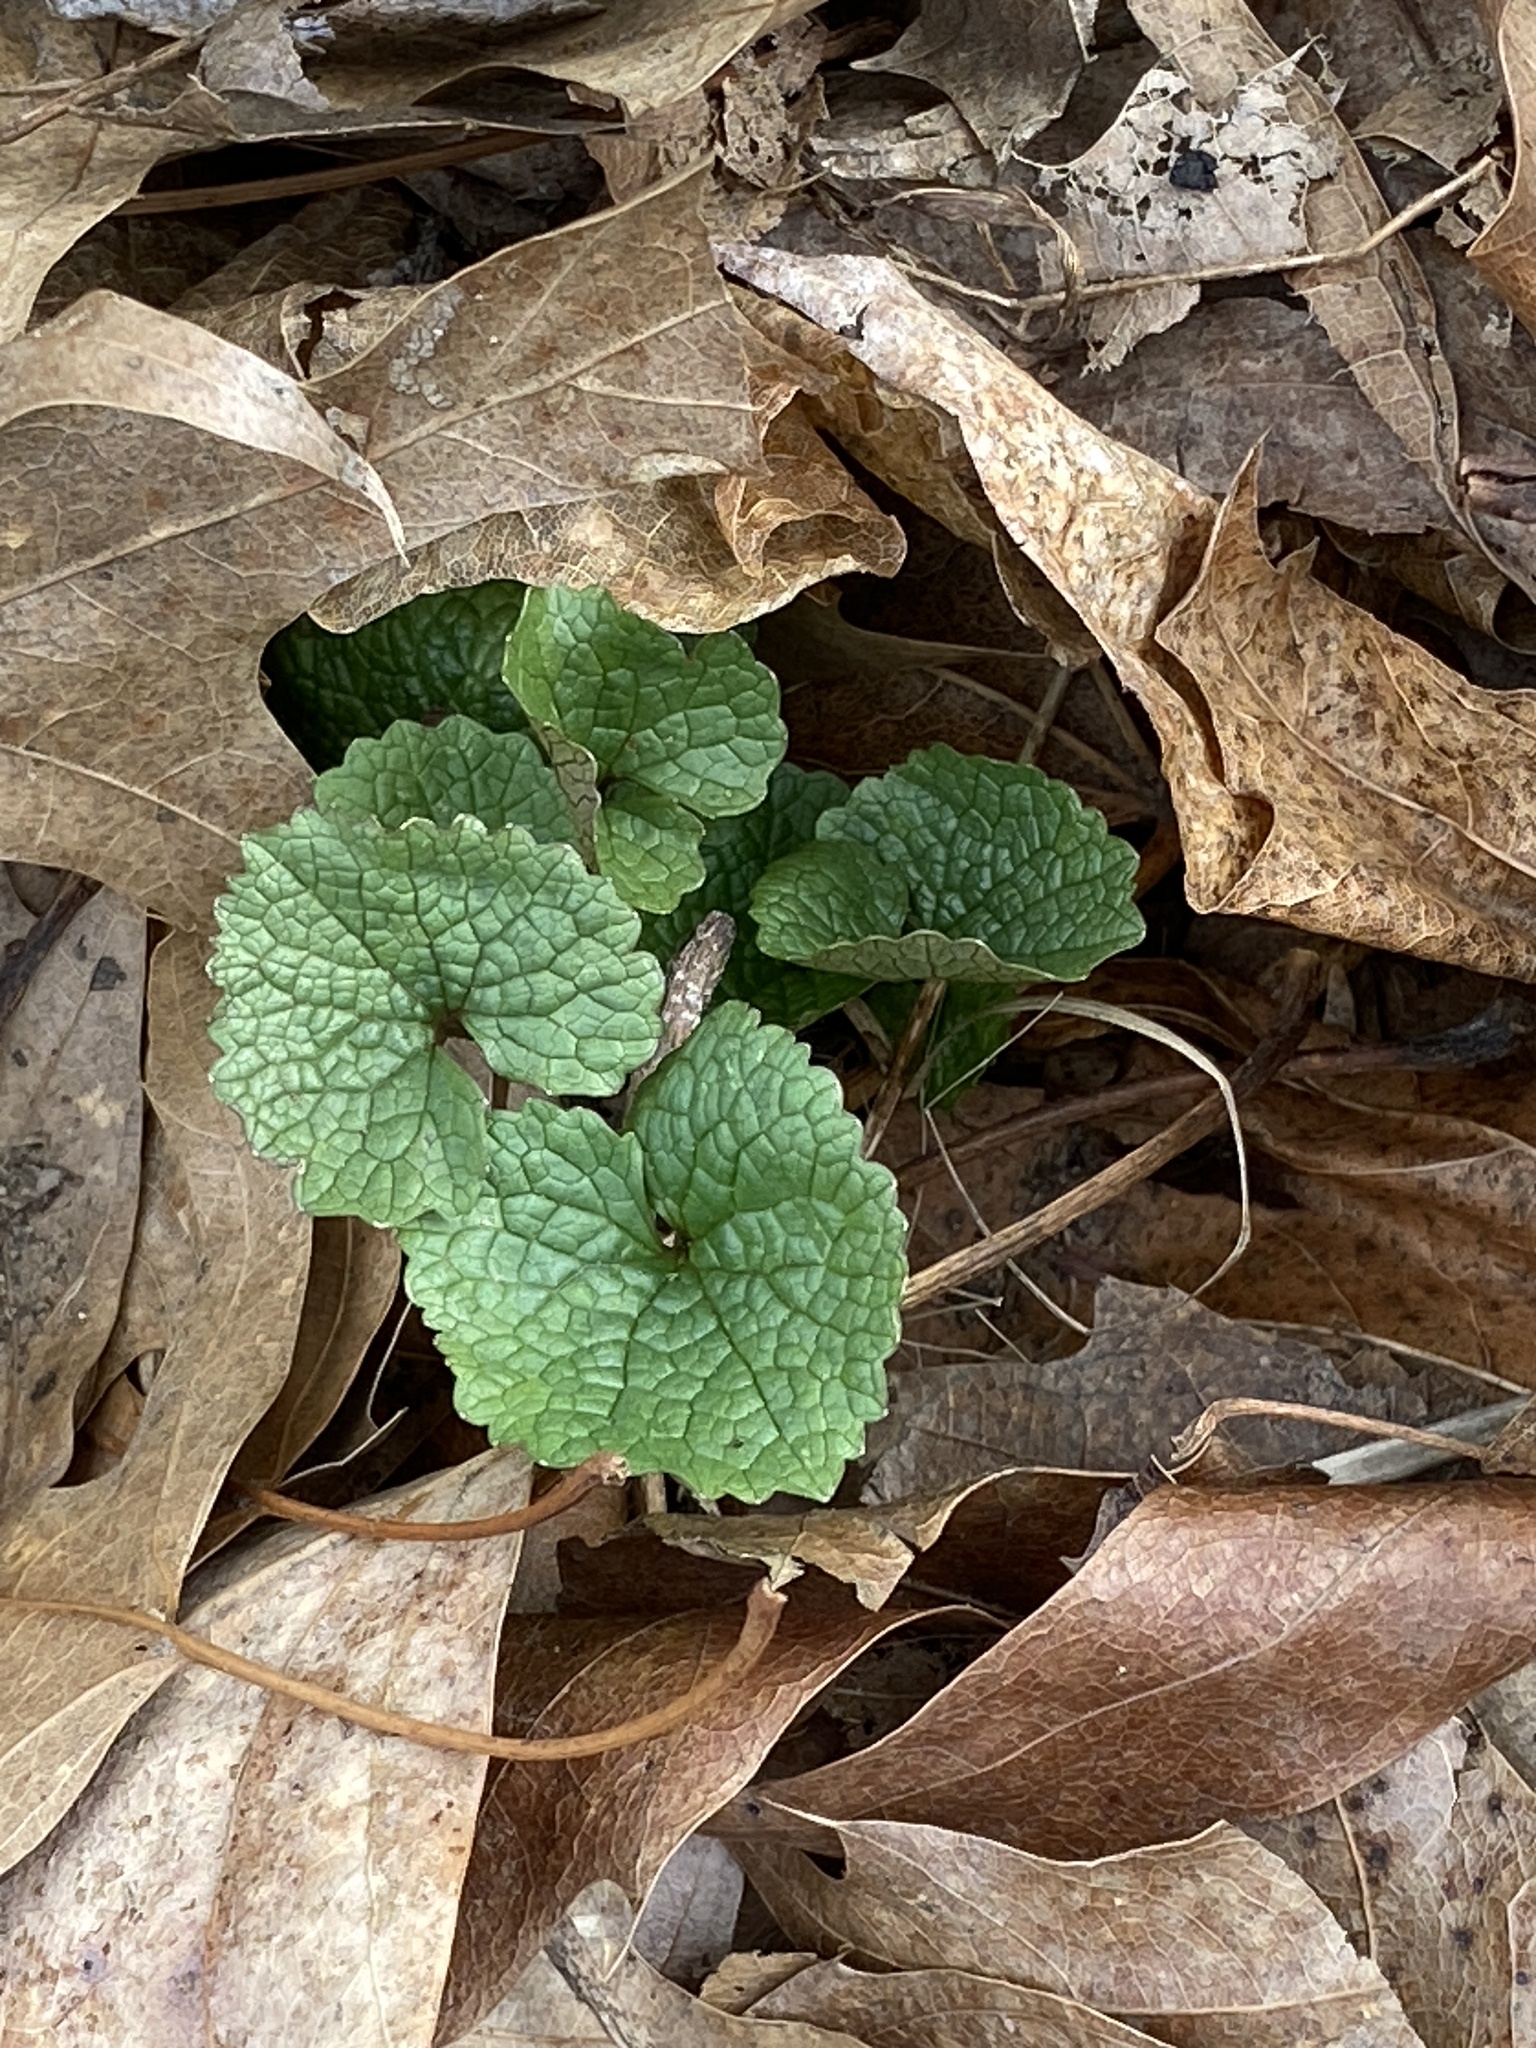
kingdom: Plantae
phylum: Tracheophyta
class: Magnoliopsida
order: Brassicales
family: Brassicaceae
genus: Alliaria
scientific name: Alliaria petiolata
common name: Garlic mustard
